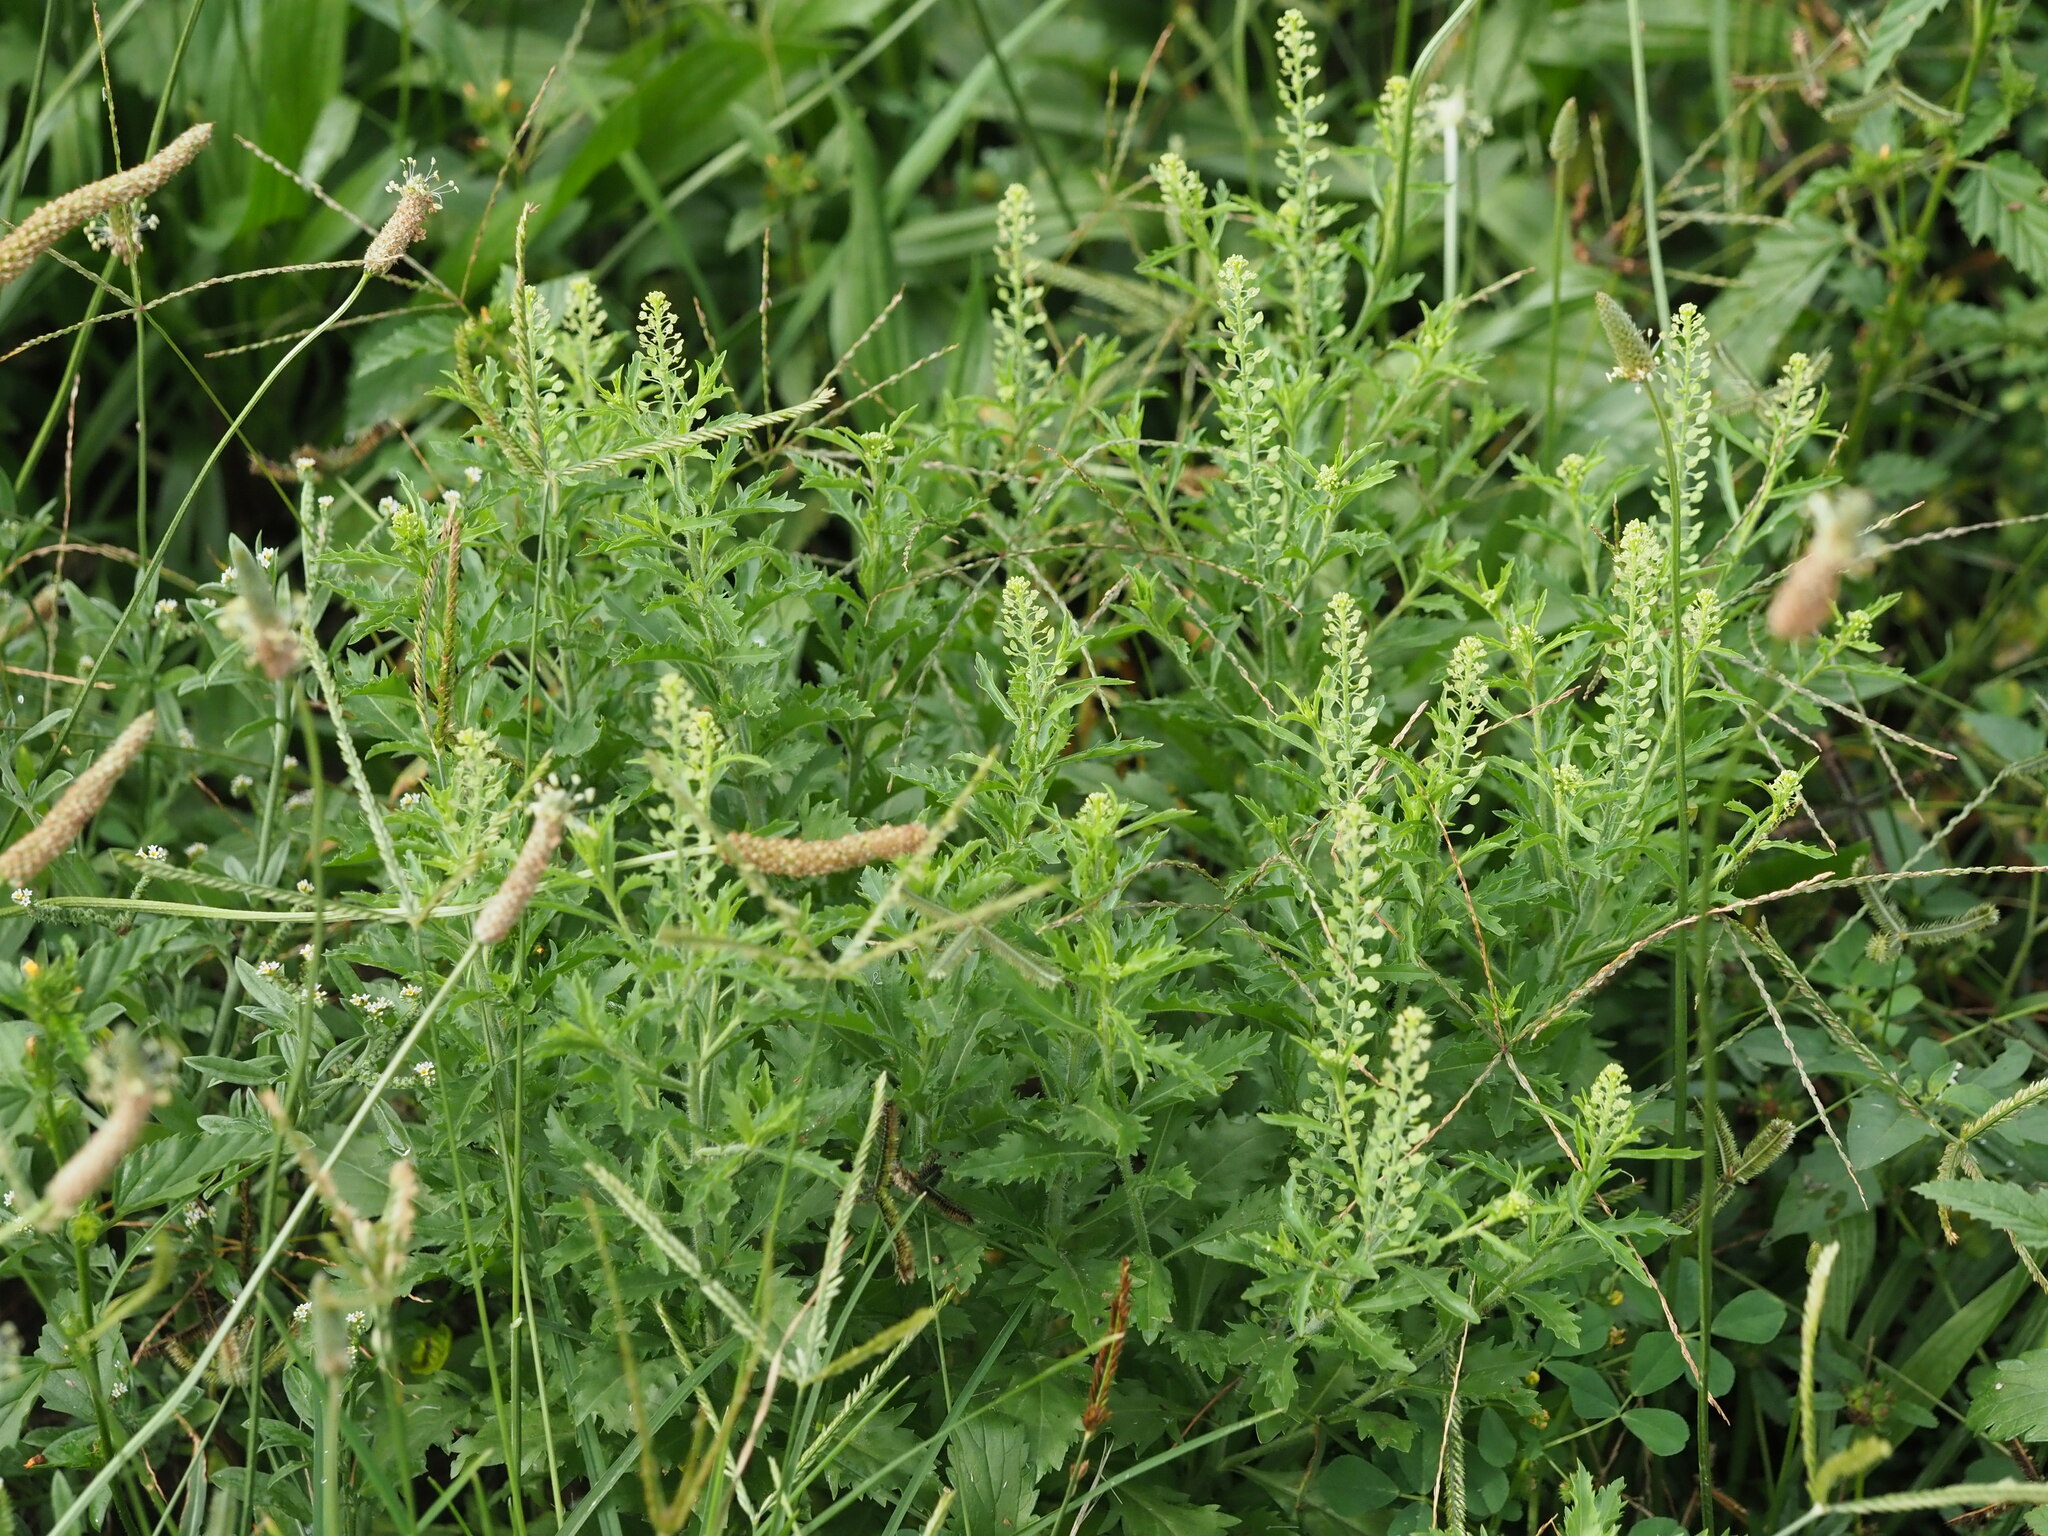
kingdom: Plantae
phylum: Tracheophyta
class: Magnoliopsida
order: Brassicales
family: Brassicaceae
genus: Lepidium
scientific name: Lepidium lasiocarpum
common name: Hairy-pod pepperwort
